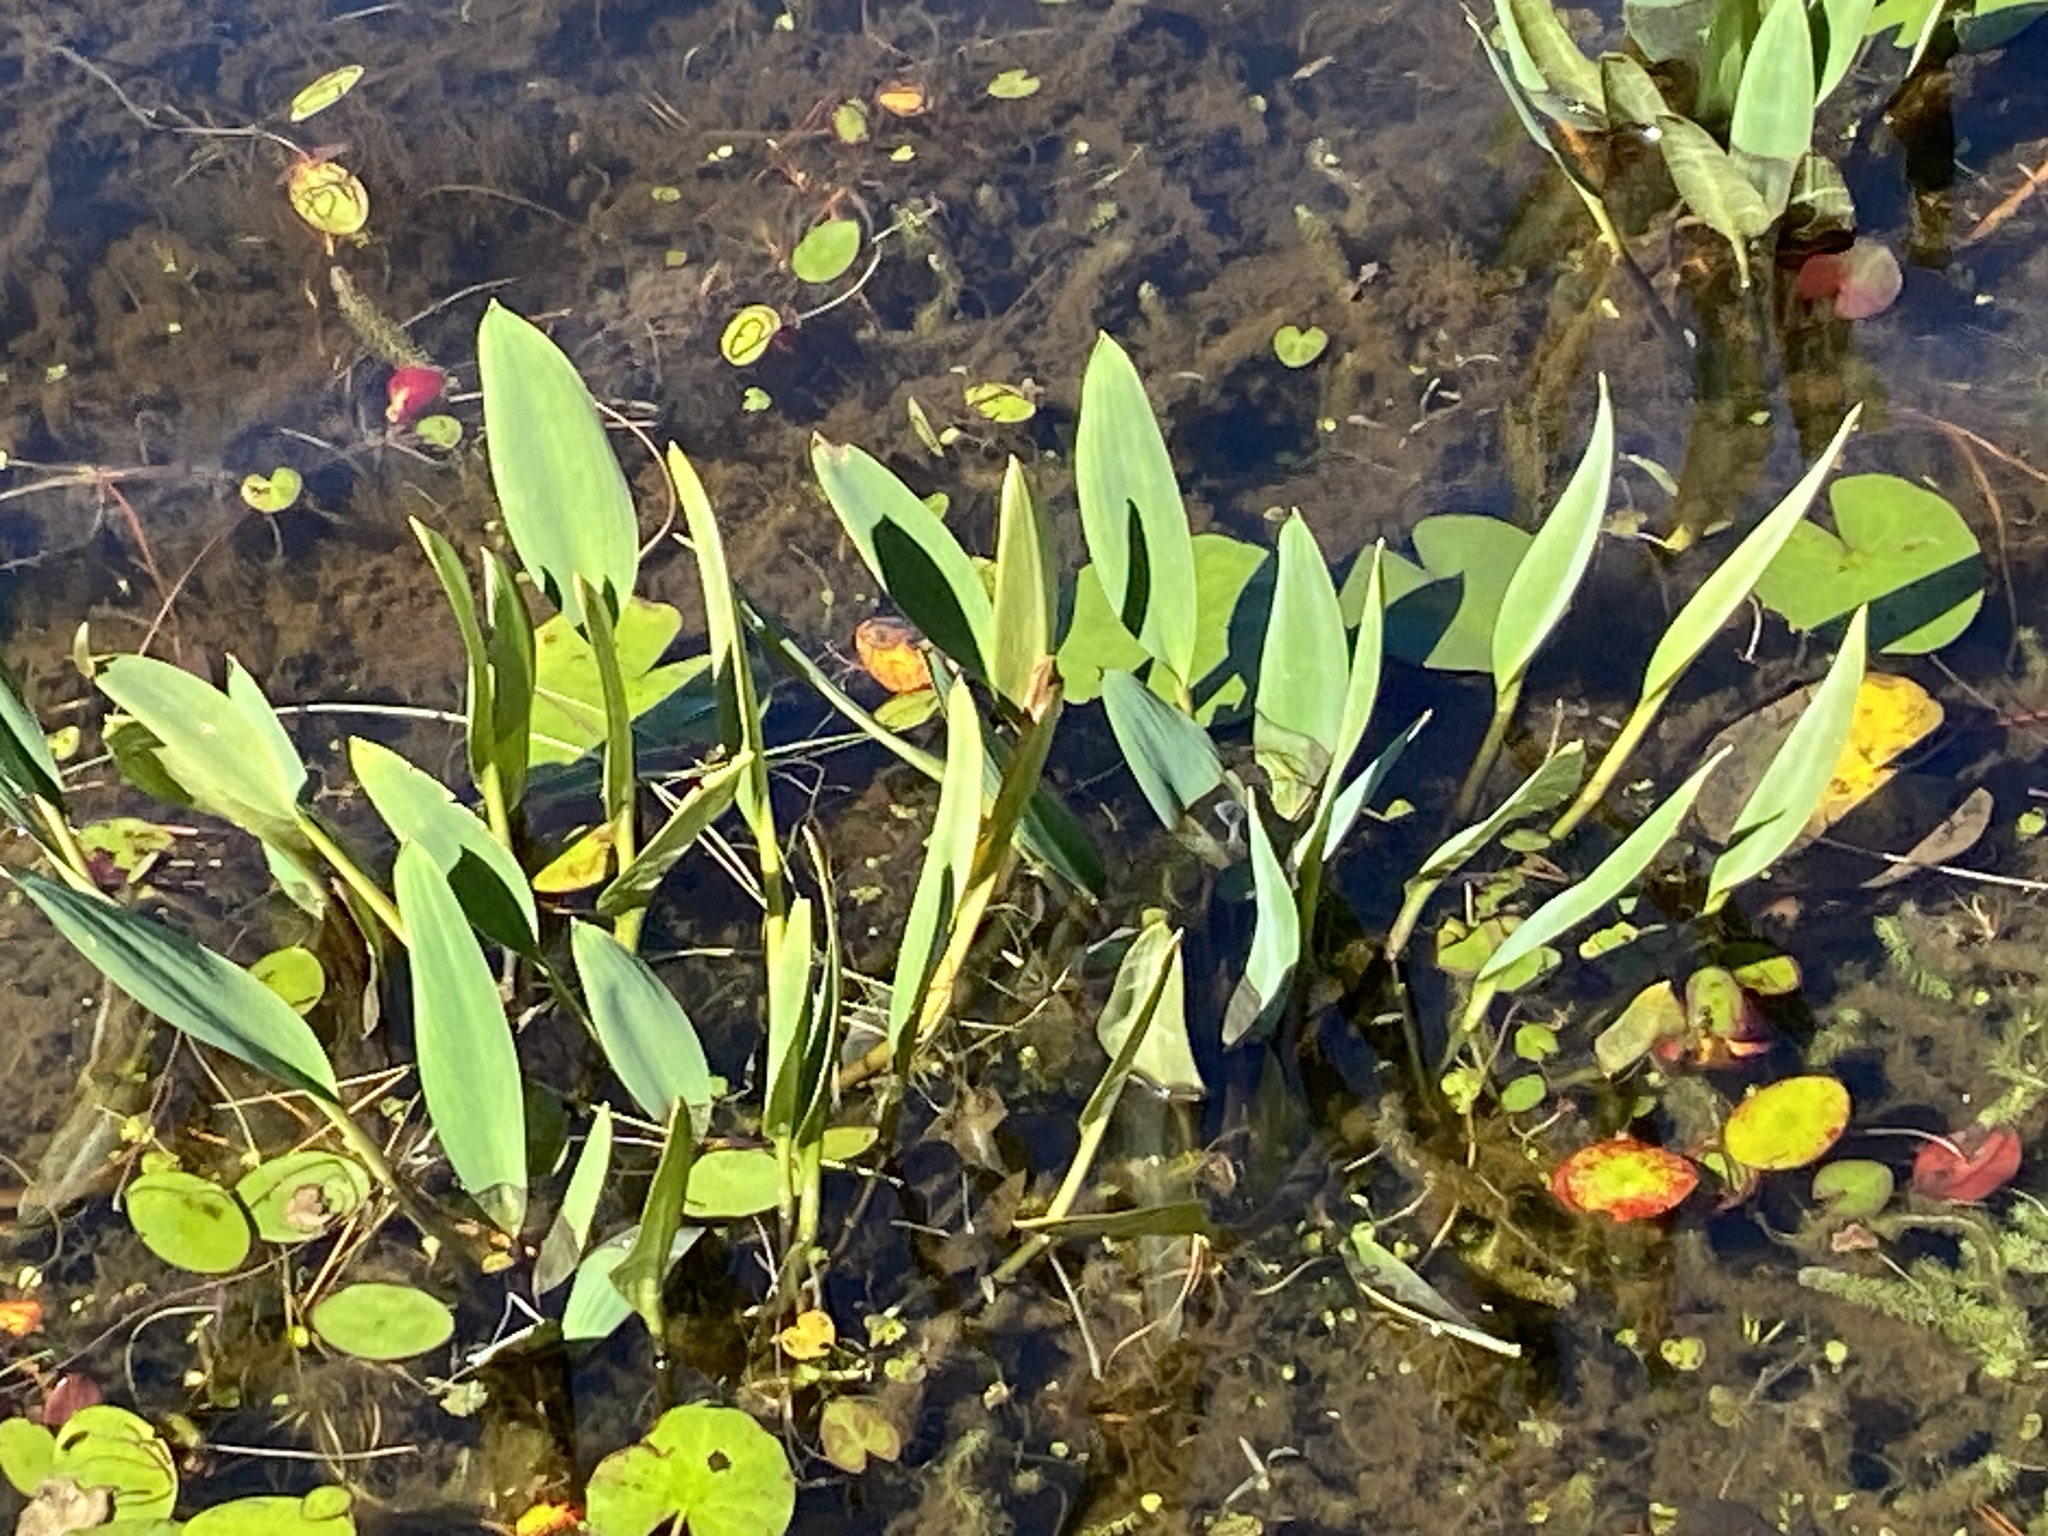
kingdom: Plantae
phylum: Tracheophyta
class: Liliopsida
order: Alismatales
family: Araceae
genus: Orontium
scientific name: Orontium aquaticum
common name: Golden-club
